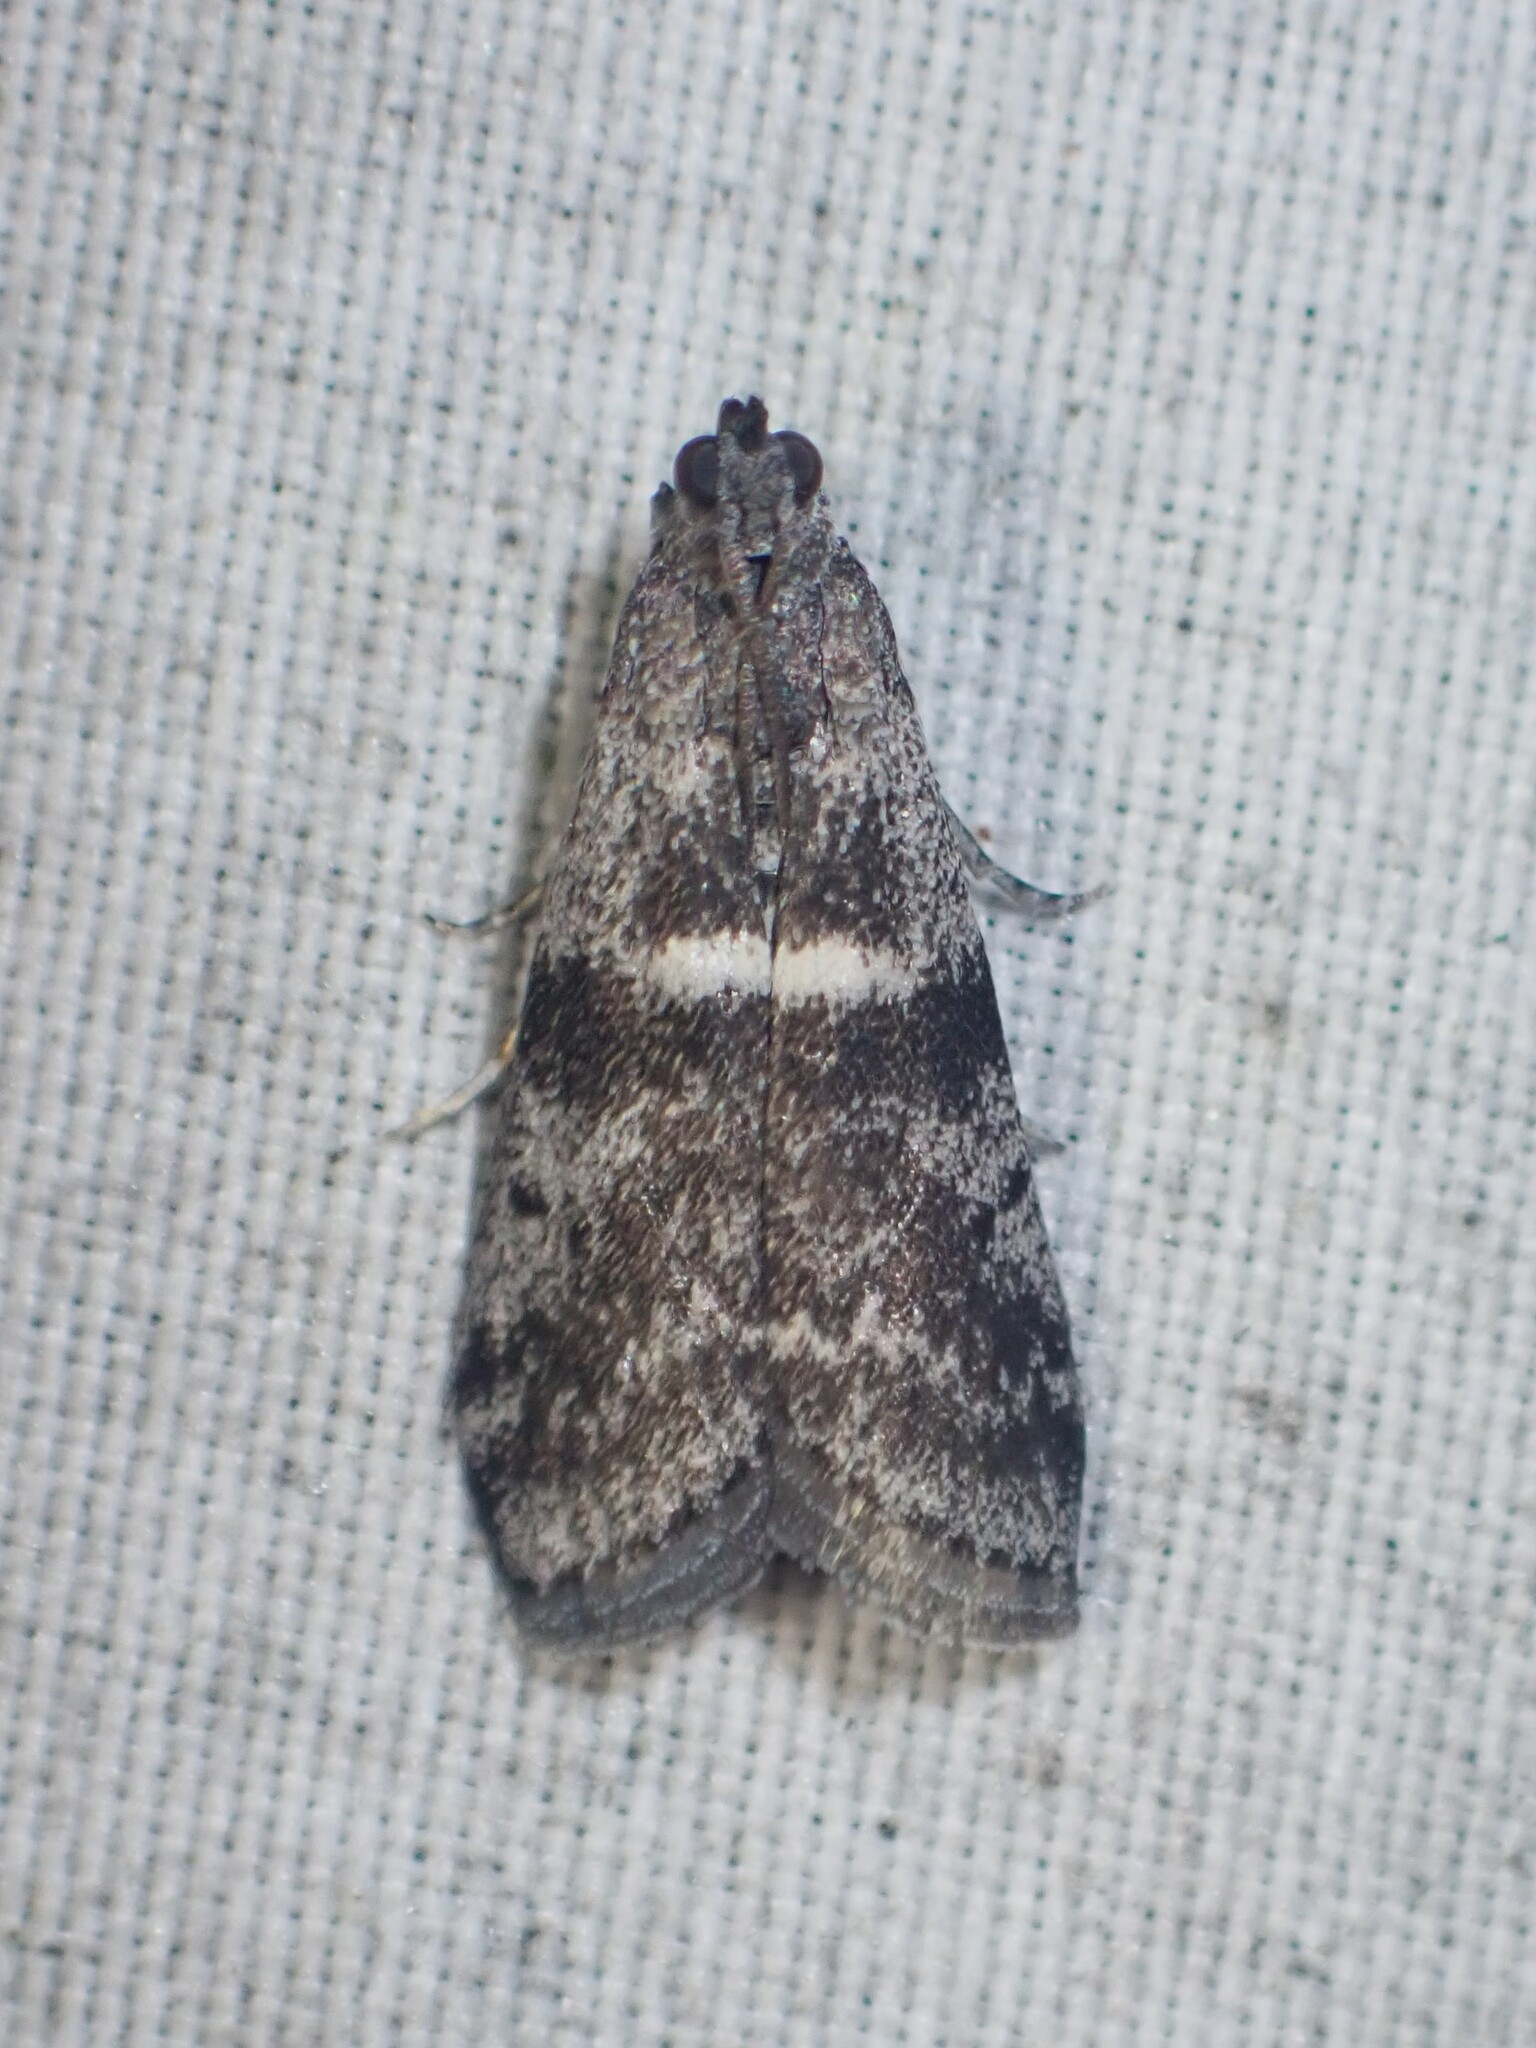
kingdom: Animalia
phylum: Arthropoda
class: Insecta
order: Lepidoptera
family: Pyralidae
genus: Apomyelois
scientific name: Apomyelois bistriatella
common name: Heath knot-horn
